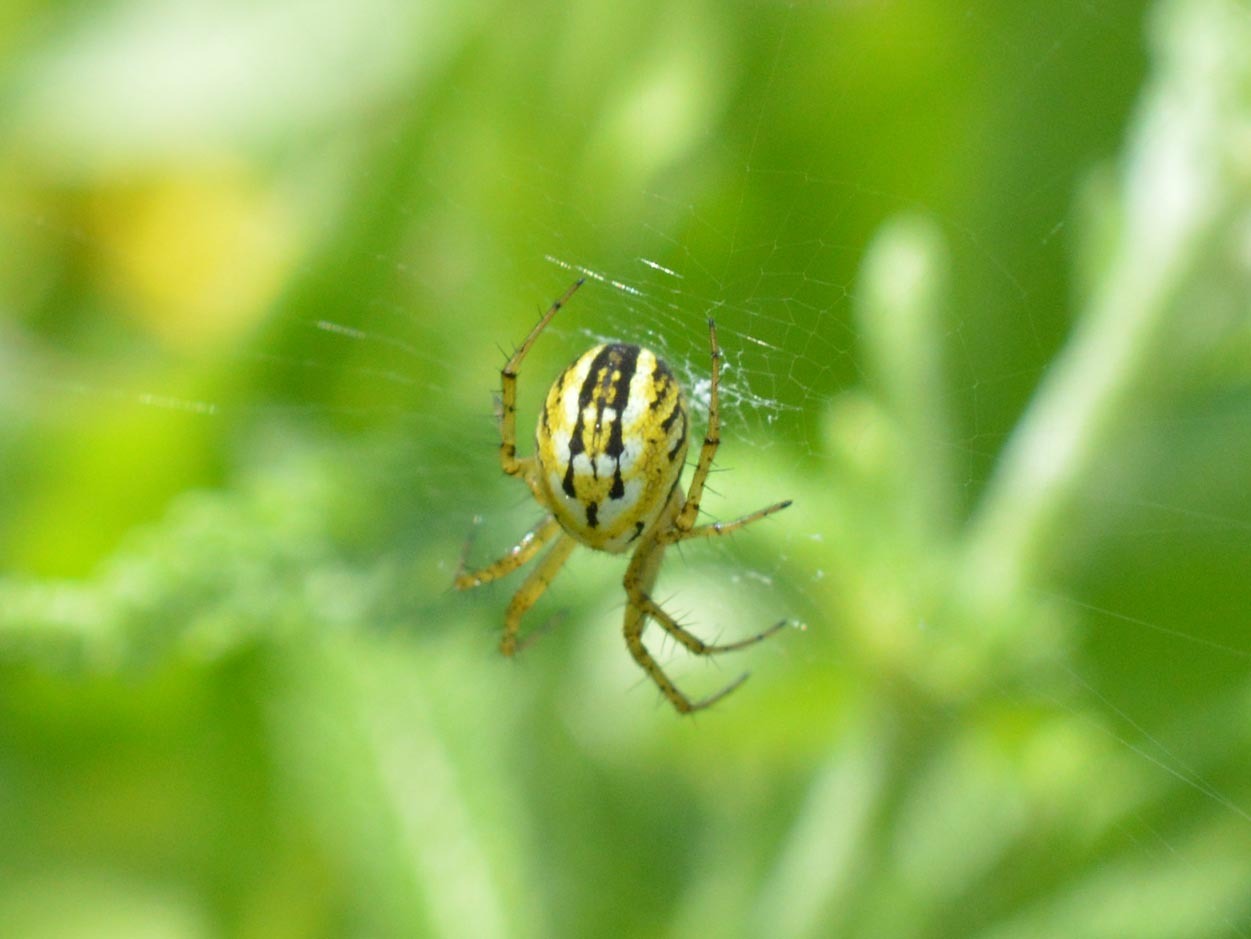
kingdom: Animalia
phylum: Arthropoda
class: Arachnida
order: Araneae
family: Araneidae
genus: Mangora
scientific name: Mangora acalypha
